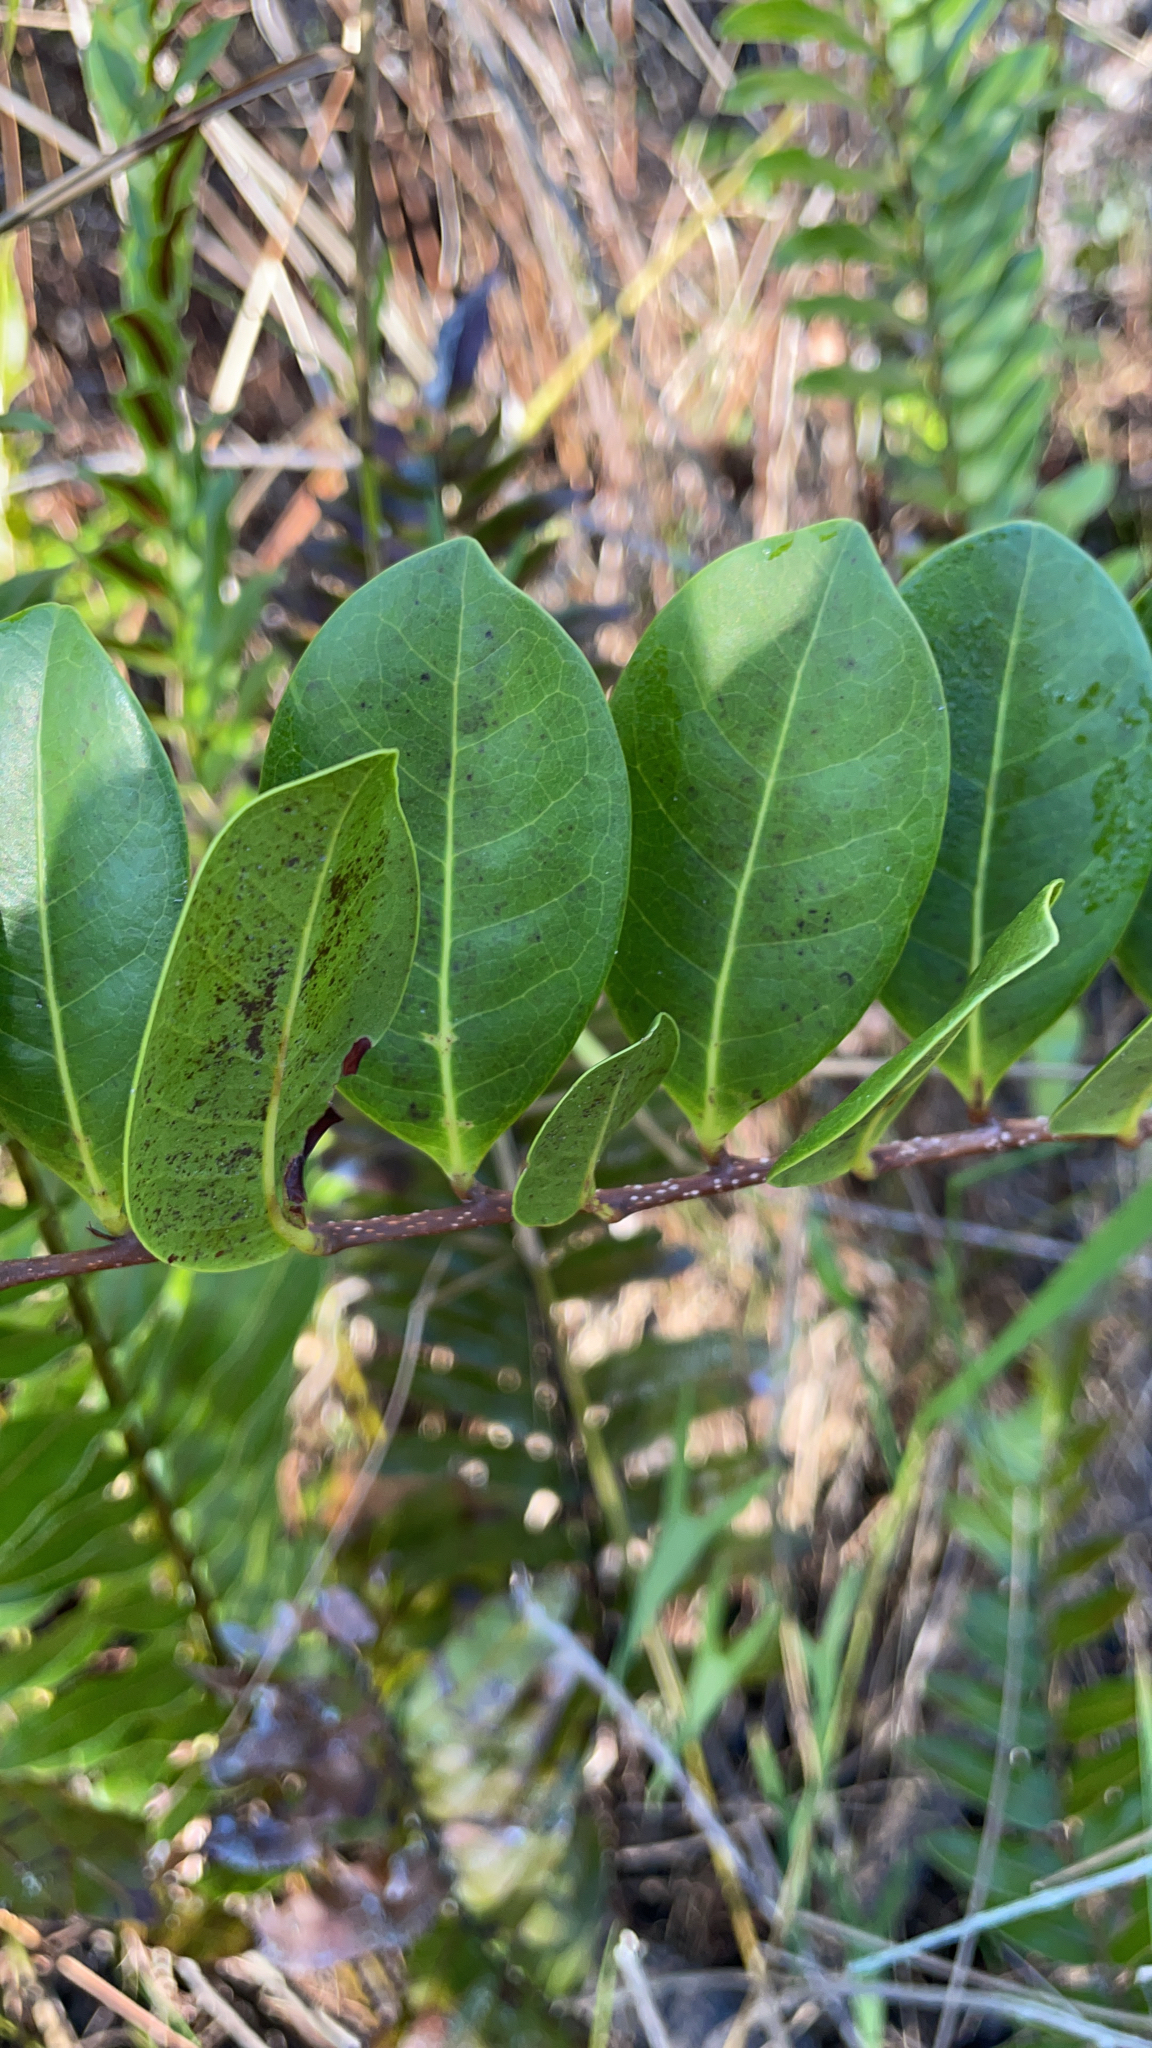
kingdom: Plantae
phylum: Tracheophyta
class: Magnoliopsida
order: Malpighiales
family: Chrysobalanaceae
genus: Chrysobalanus
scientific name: Chrysobalanus icaco
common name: Coco plum
